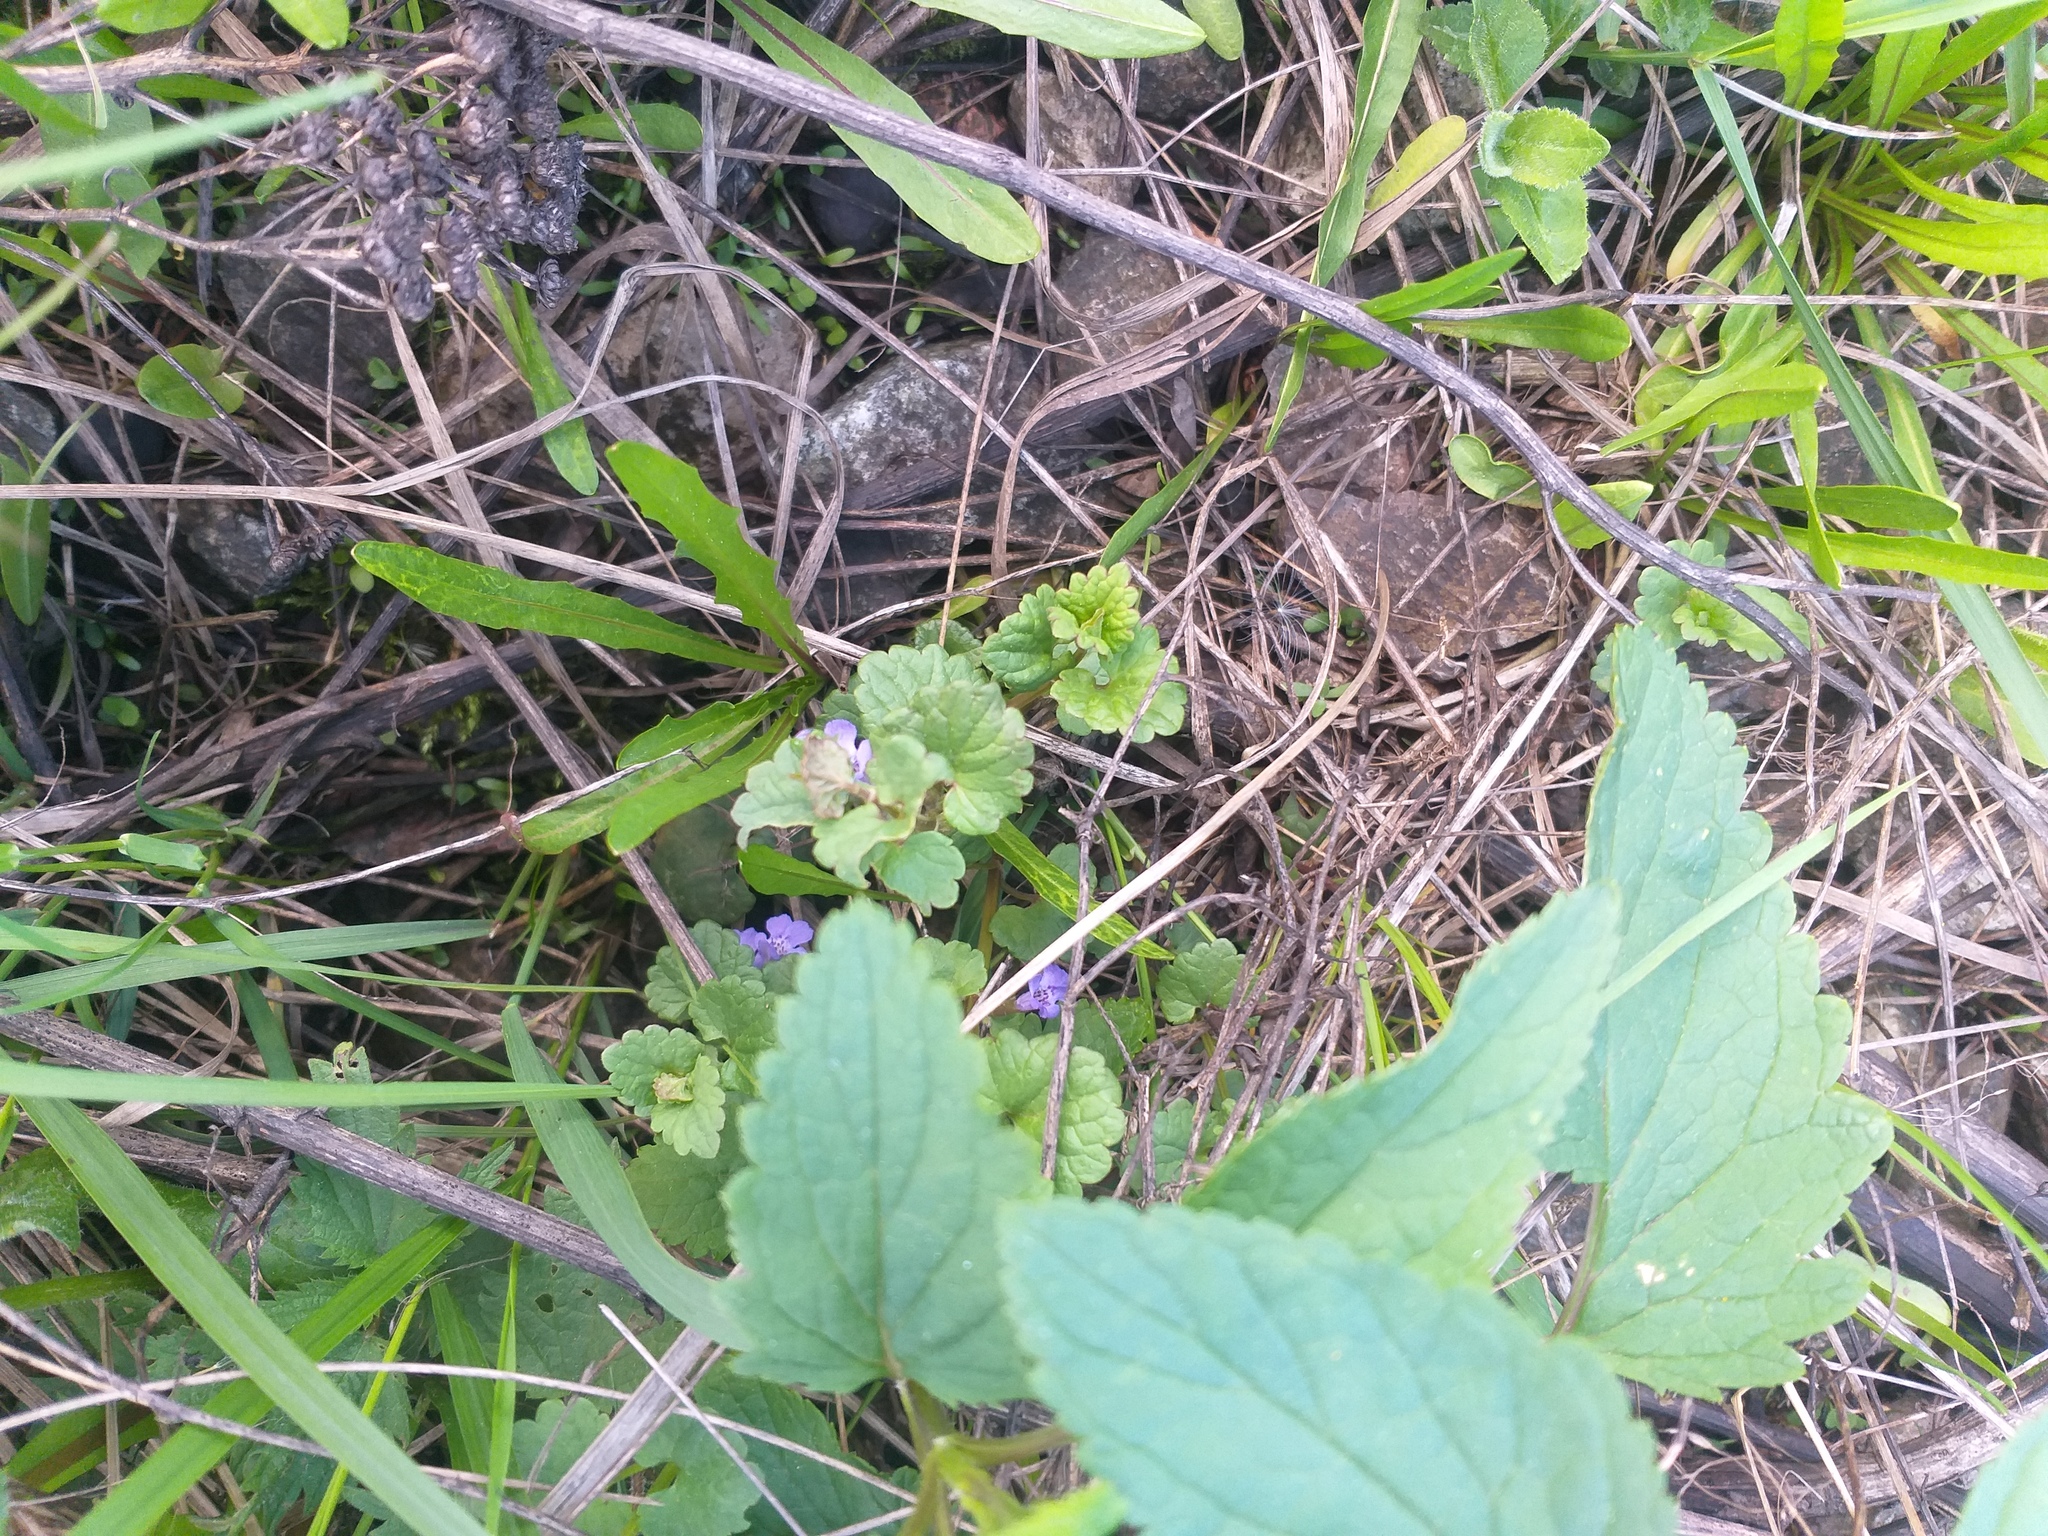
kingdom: Plantae
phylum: Tracheophyta
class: Magnoliopsida
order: Lamiales
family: Lamiaceae
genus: Glechoma
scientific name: Glechoma hederacea
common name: Ground ivy
